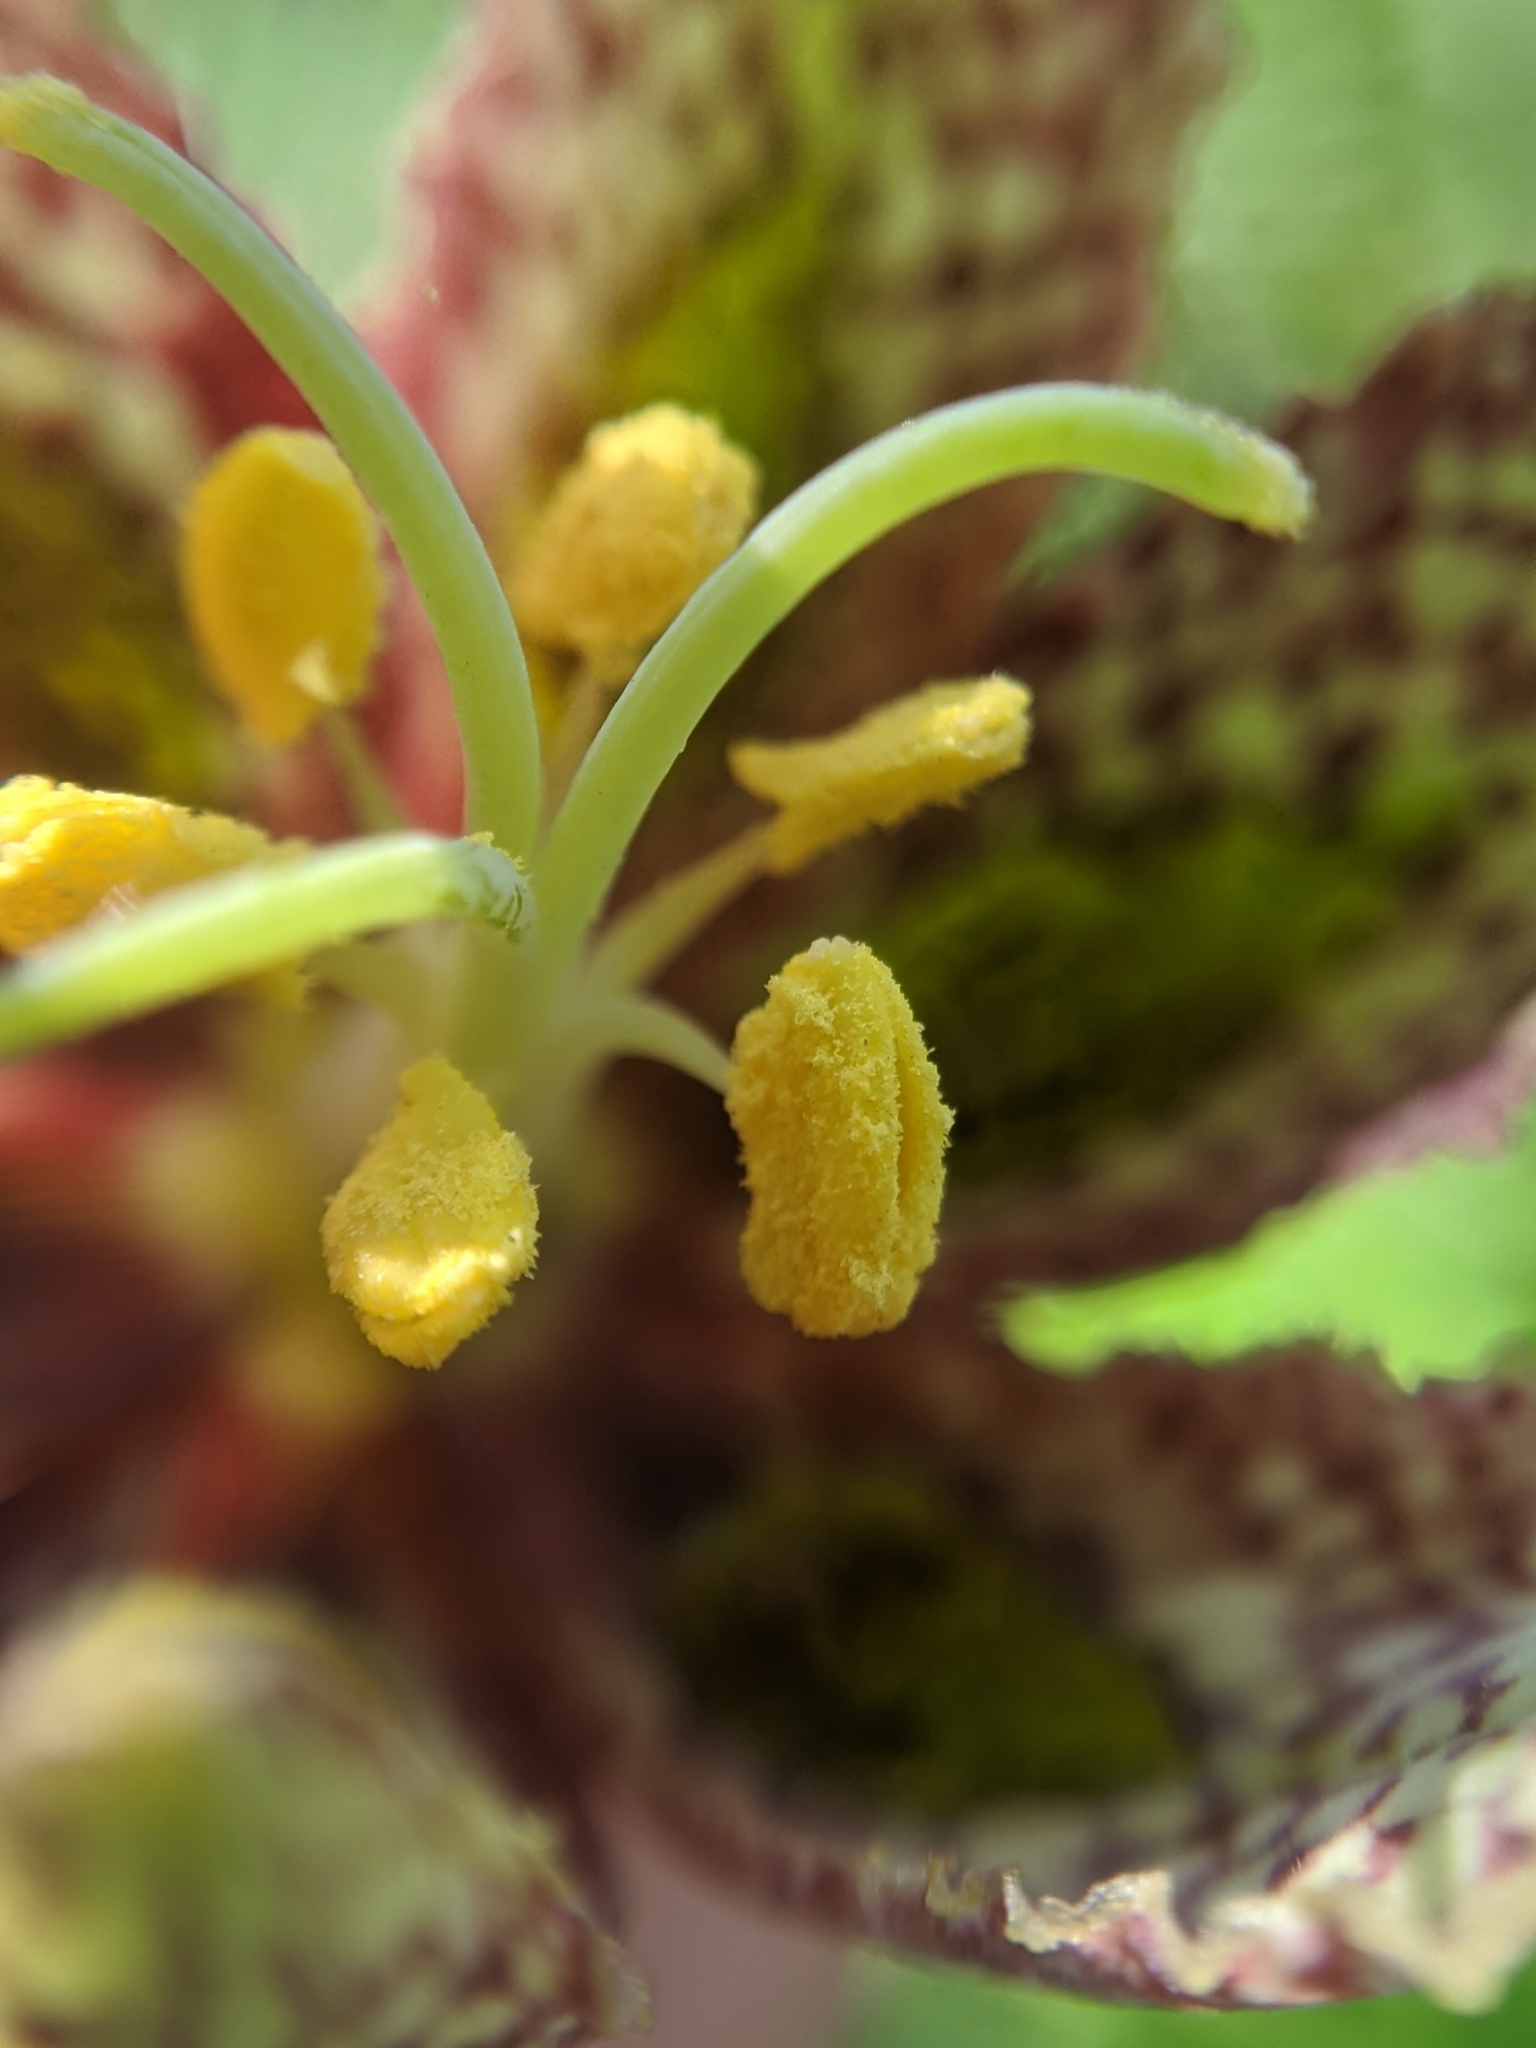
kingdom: Plantae
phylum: Tracheophyta
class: Liliopsida
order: Liliales
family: Liliaceae
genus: Fritillaria
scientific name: Fritillaria affinis
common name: Ojai fritillary
